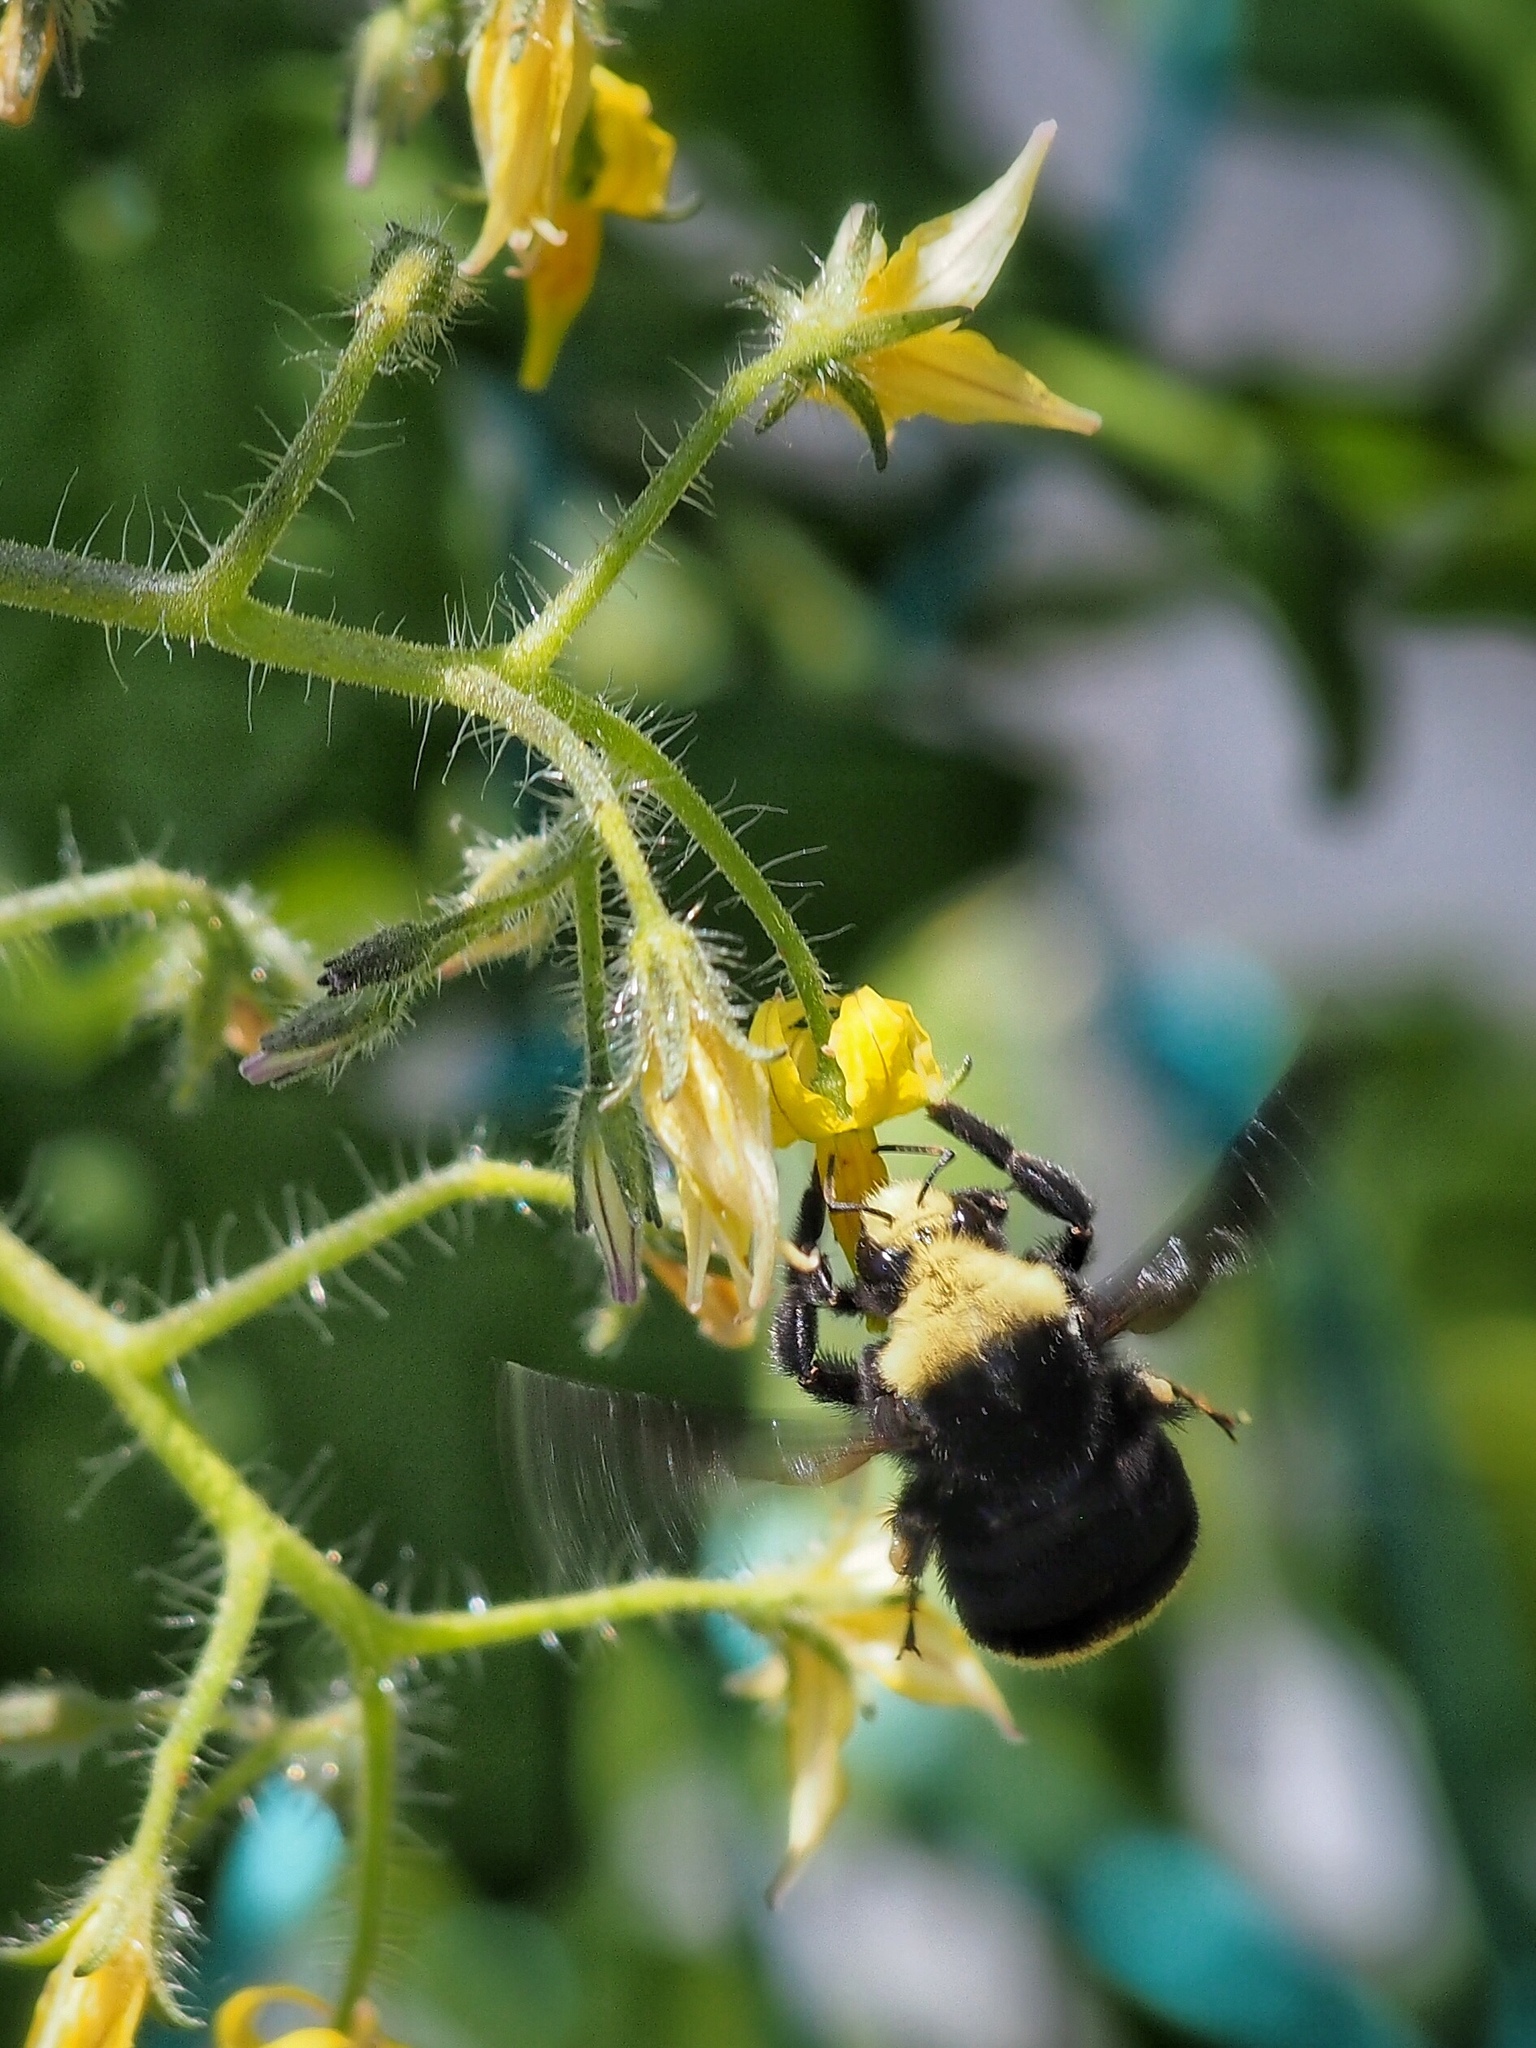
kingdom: Animalia
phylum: Arthropoda
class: Insecta
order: Hymenoptera
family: Apidae
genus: Bombus
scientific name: Bombus vosnesenskii
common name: Vosnesensky bumble bee
